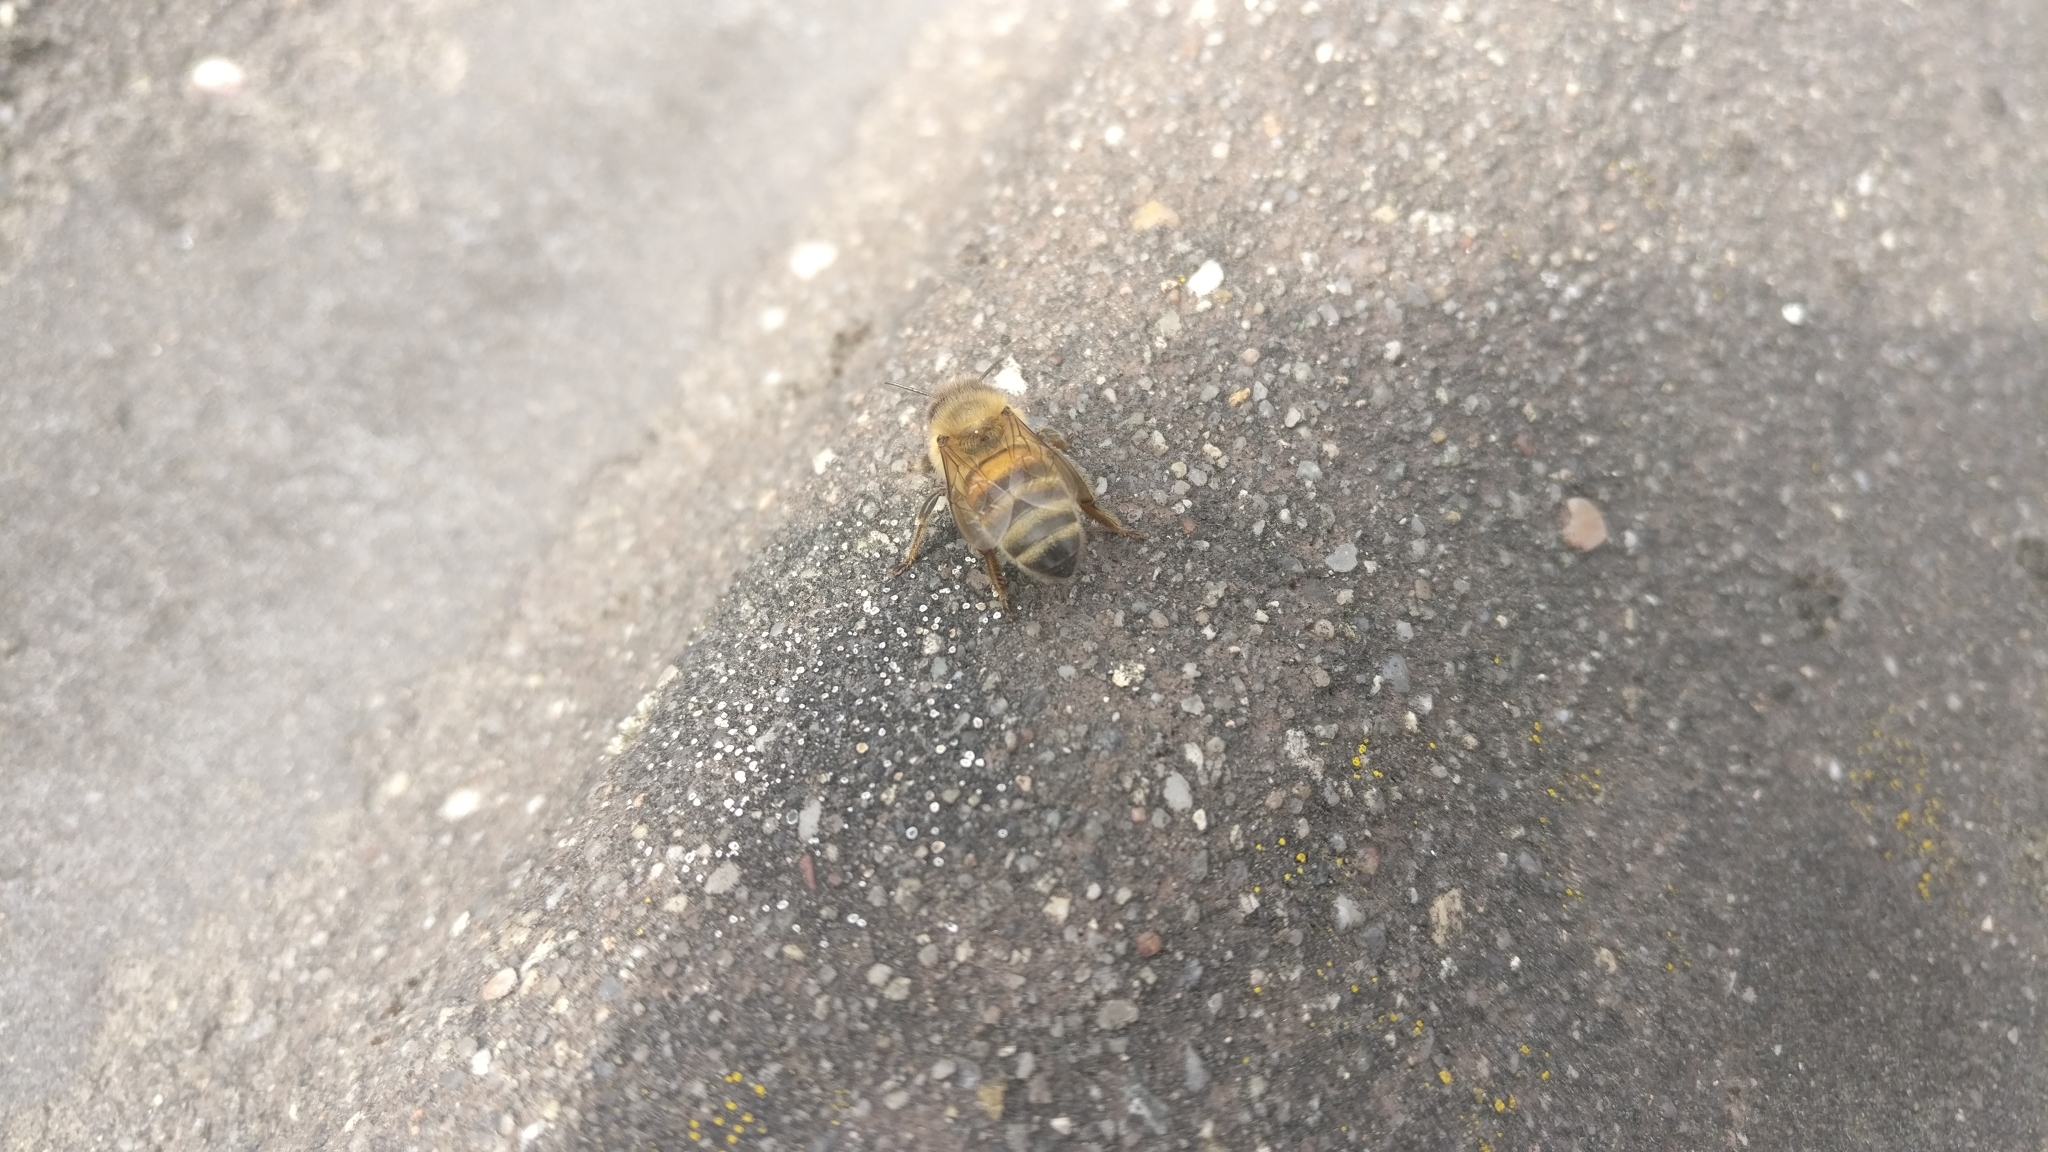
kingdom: Animalia
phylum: Arthropoda
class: Insecta
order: Hymenoptera
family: Apidae
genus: Apis
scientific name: Apis mellifera
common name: Honey bee
